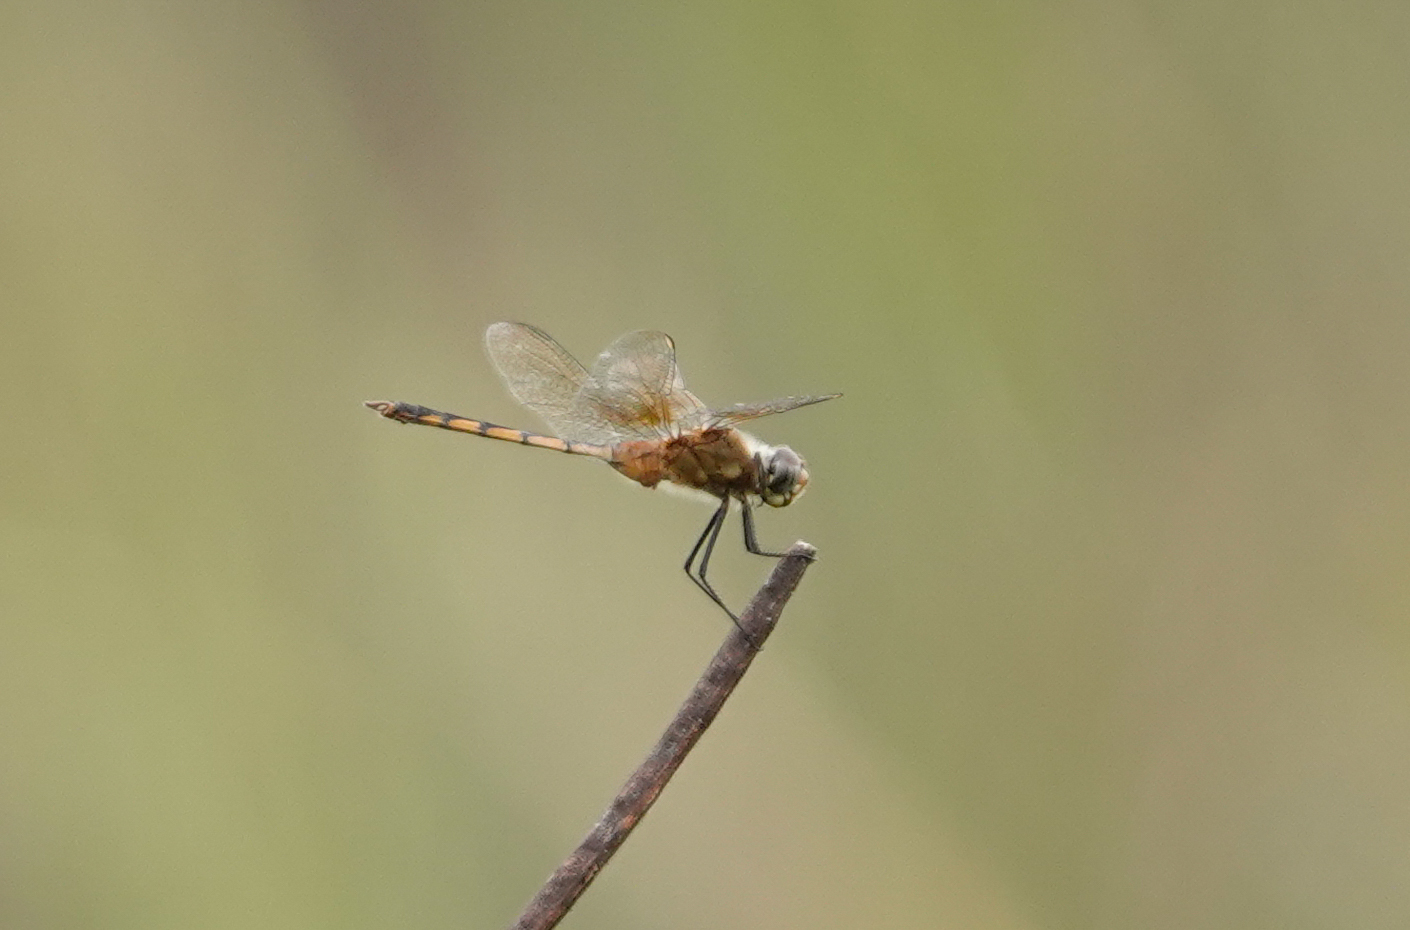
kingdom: Animalia
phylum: Arthropoda
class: Insecta
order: Odonata
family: Libellulidae
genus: Brachymesia
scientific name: Brachymesia herbida
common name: Tawny pennant
